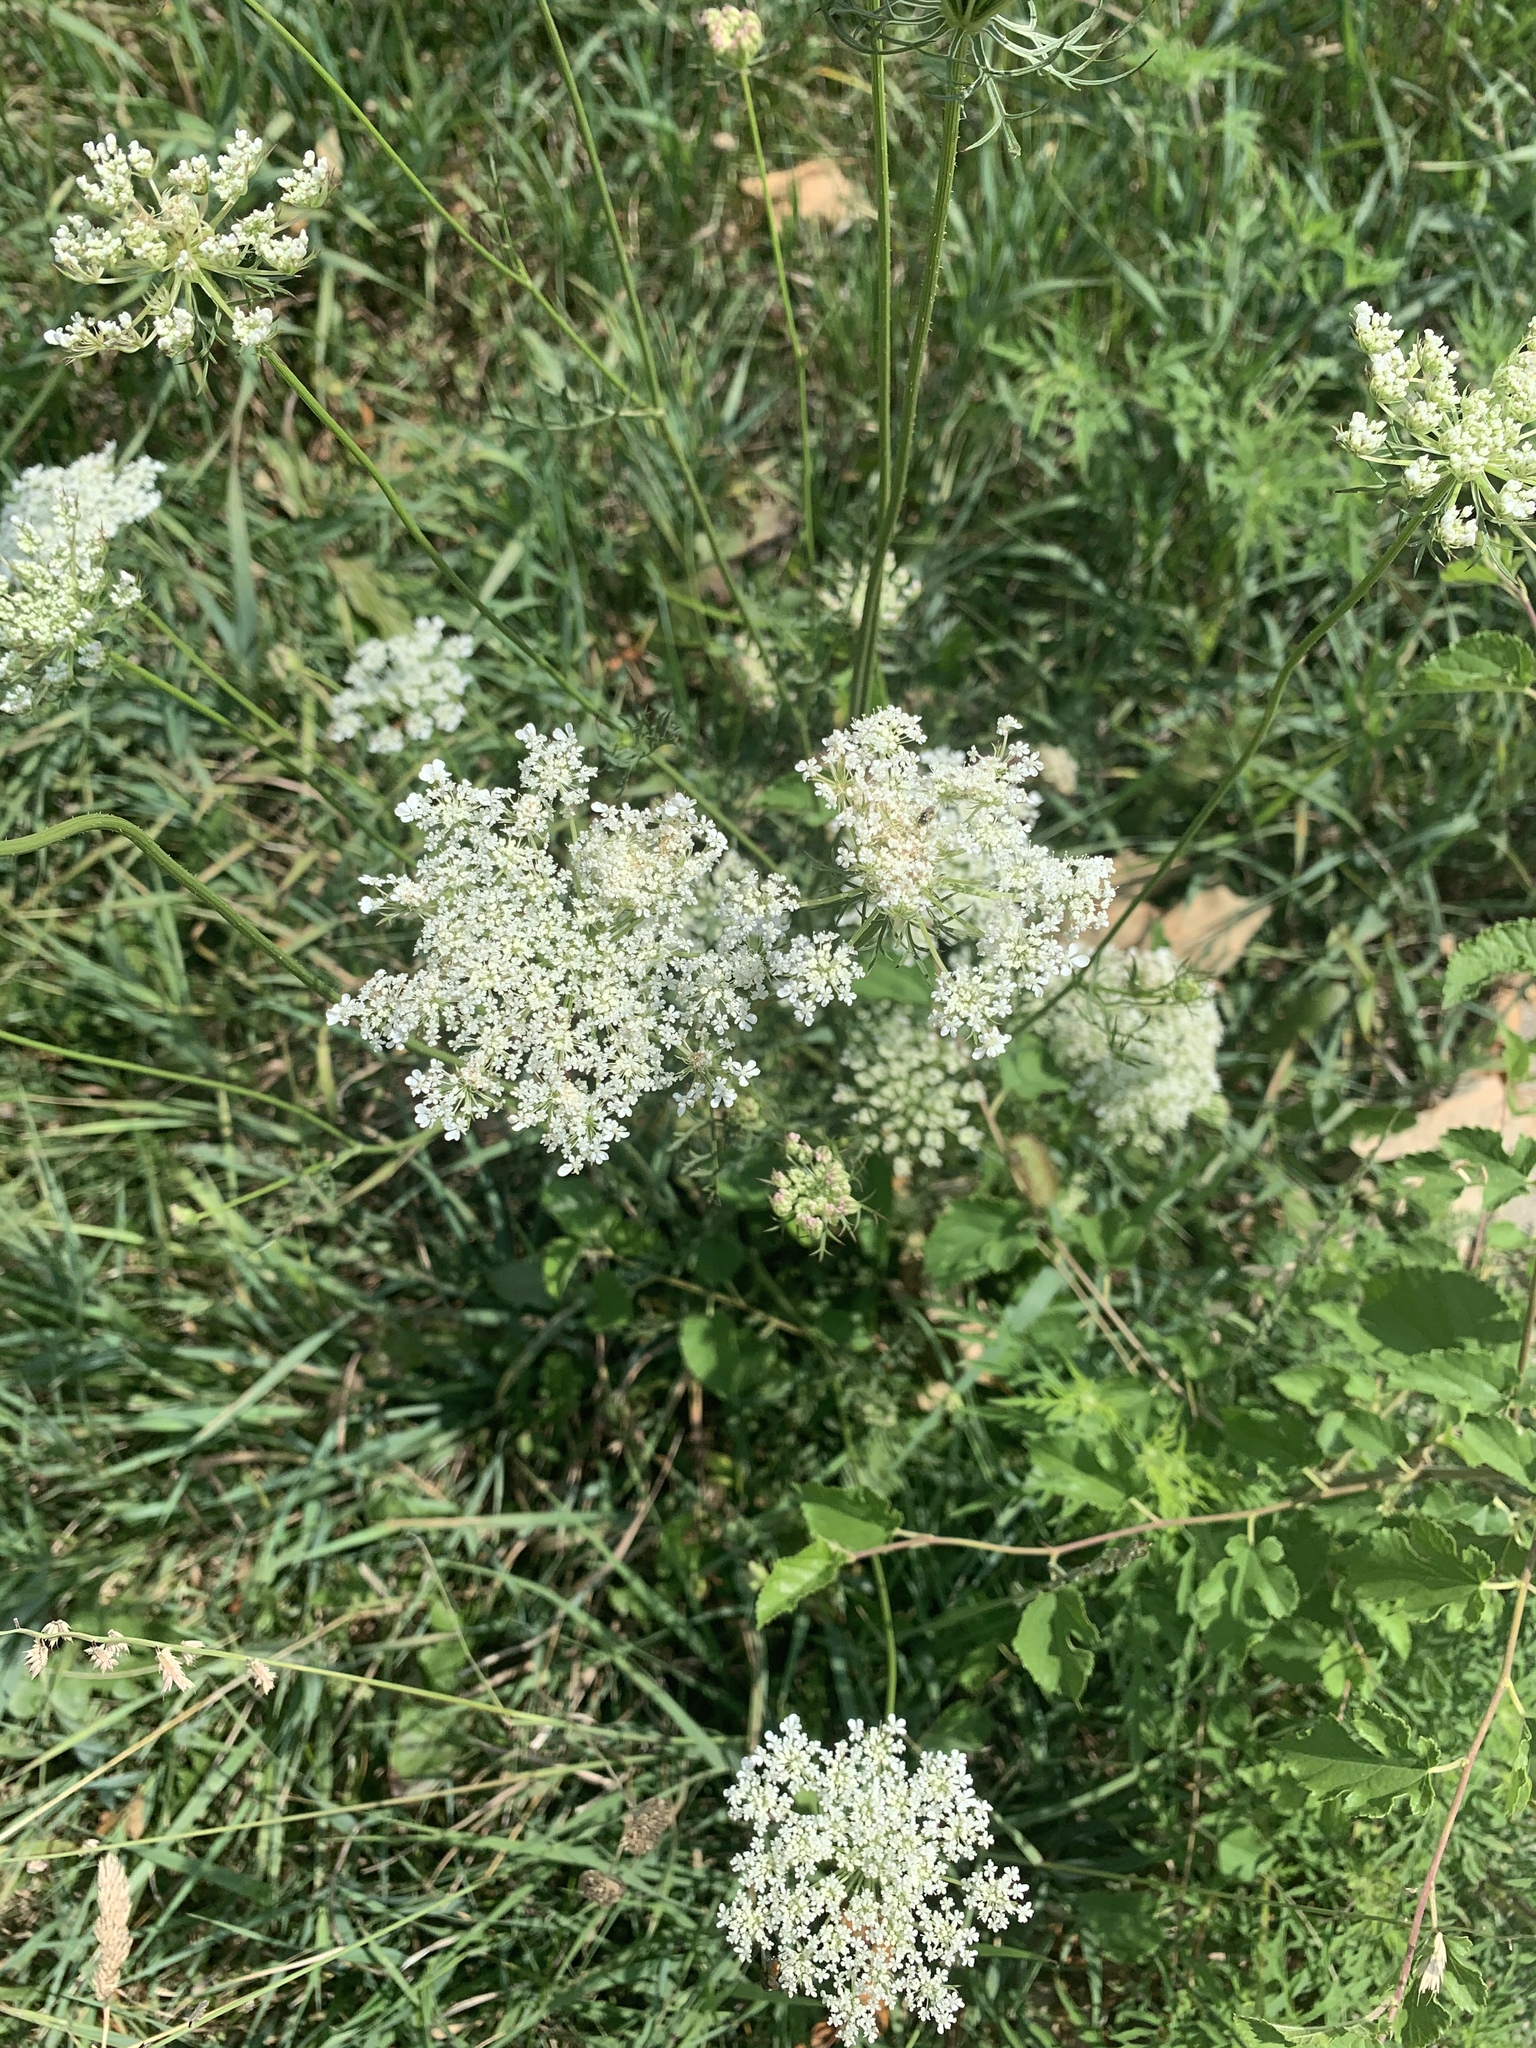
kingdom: Plantae
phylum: Tracheophyta
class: Magnoliopsida
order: Apiales
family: Apiaceae
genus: Daucus
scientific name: Daucus carota
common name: Wild carrot
